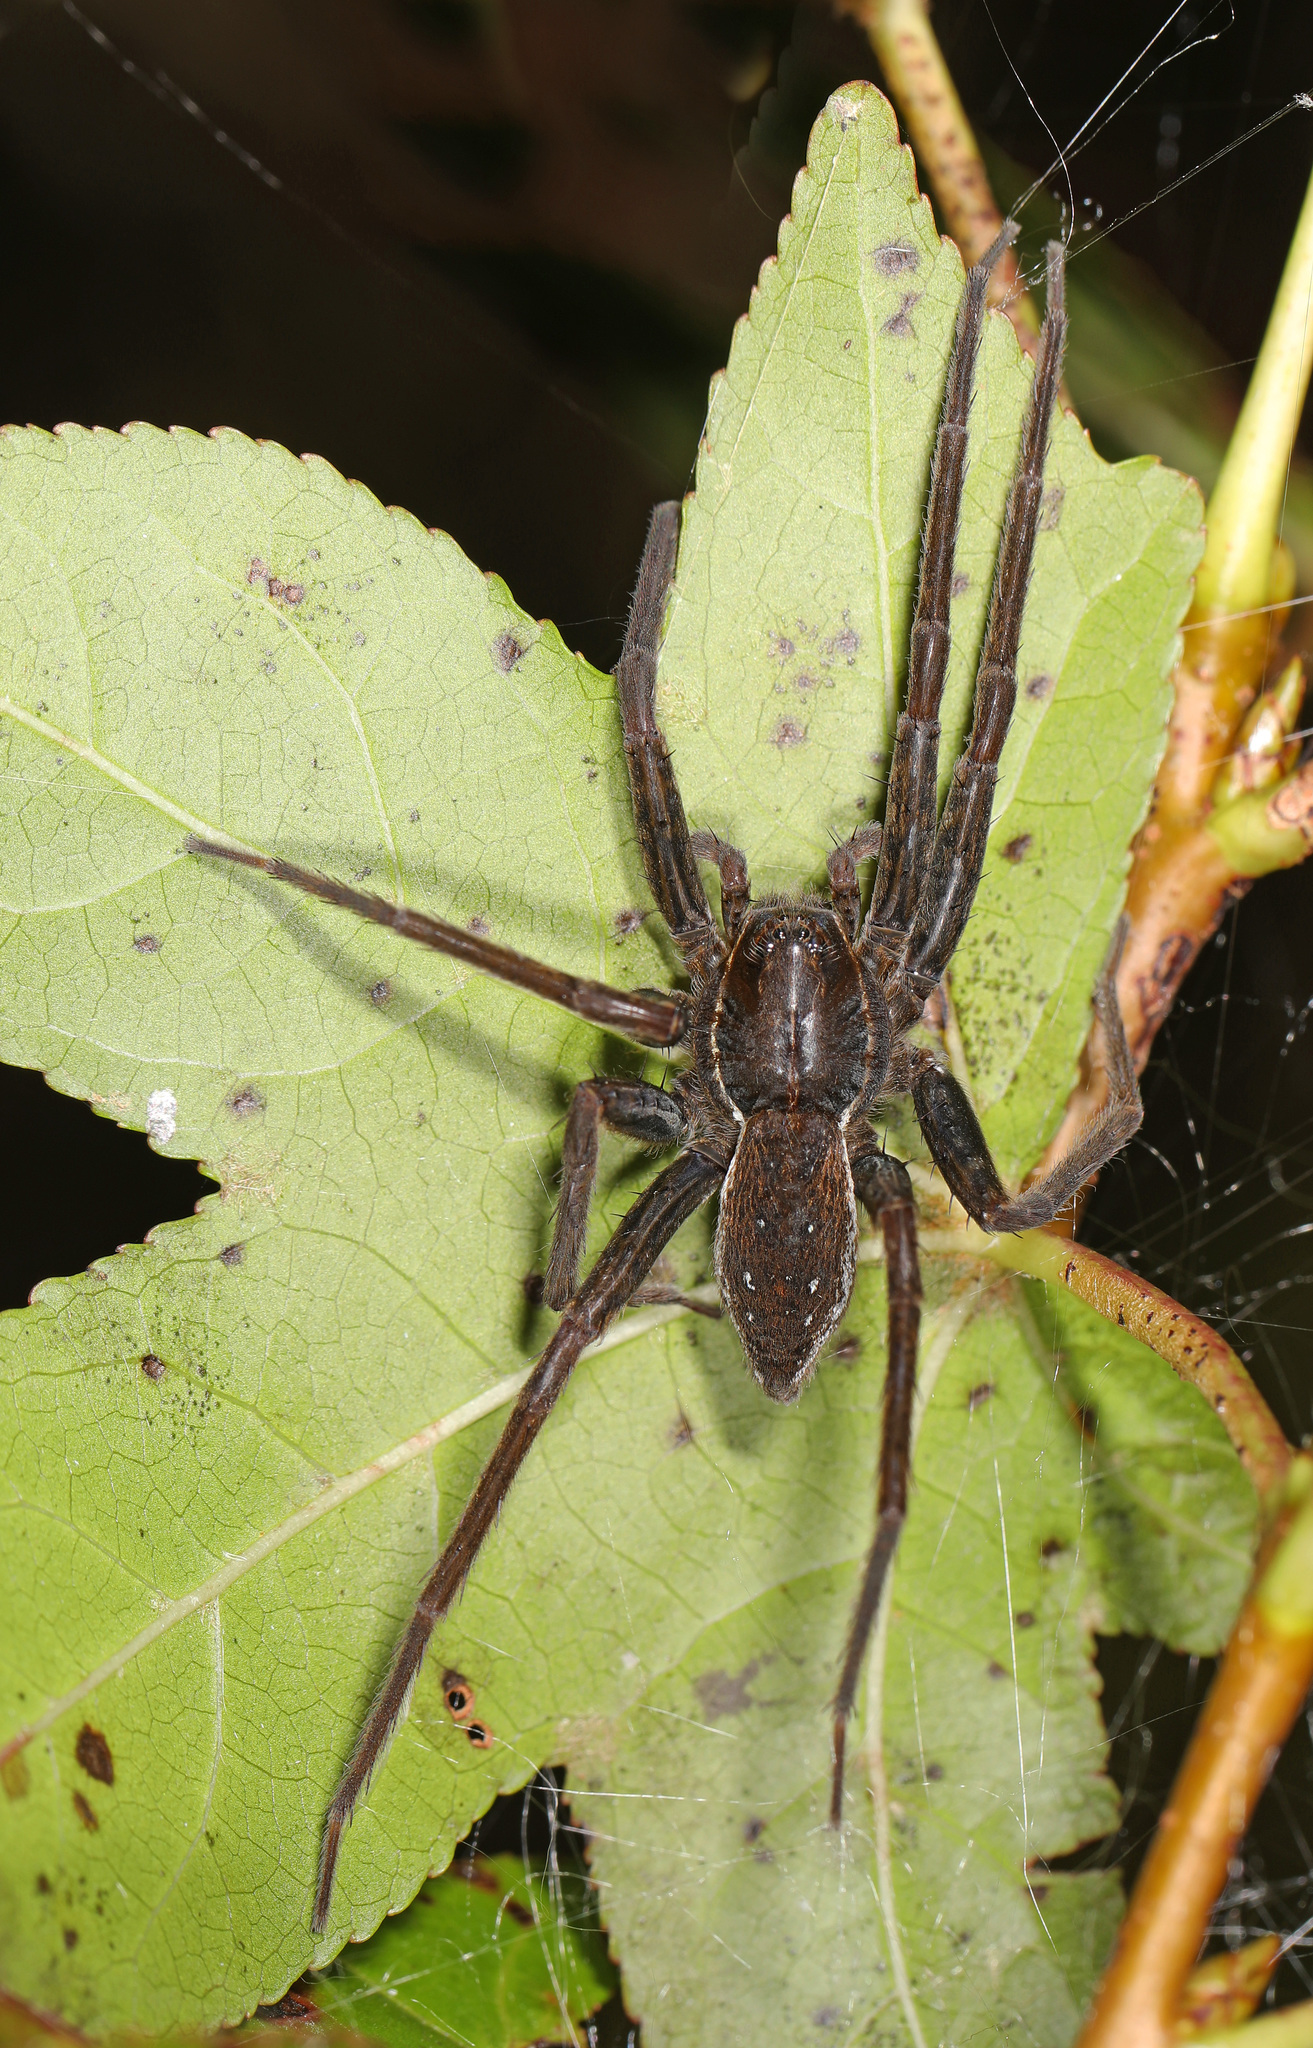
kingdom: Animalia
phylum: Arthropoda
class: Arachnida
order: Araneae
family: Pisauridae
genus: Dolomedes
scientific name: Dolomedes triton
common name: Six-spotted fishing spider
